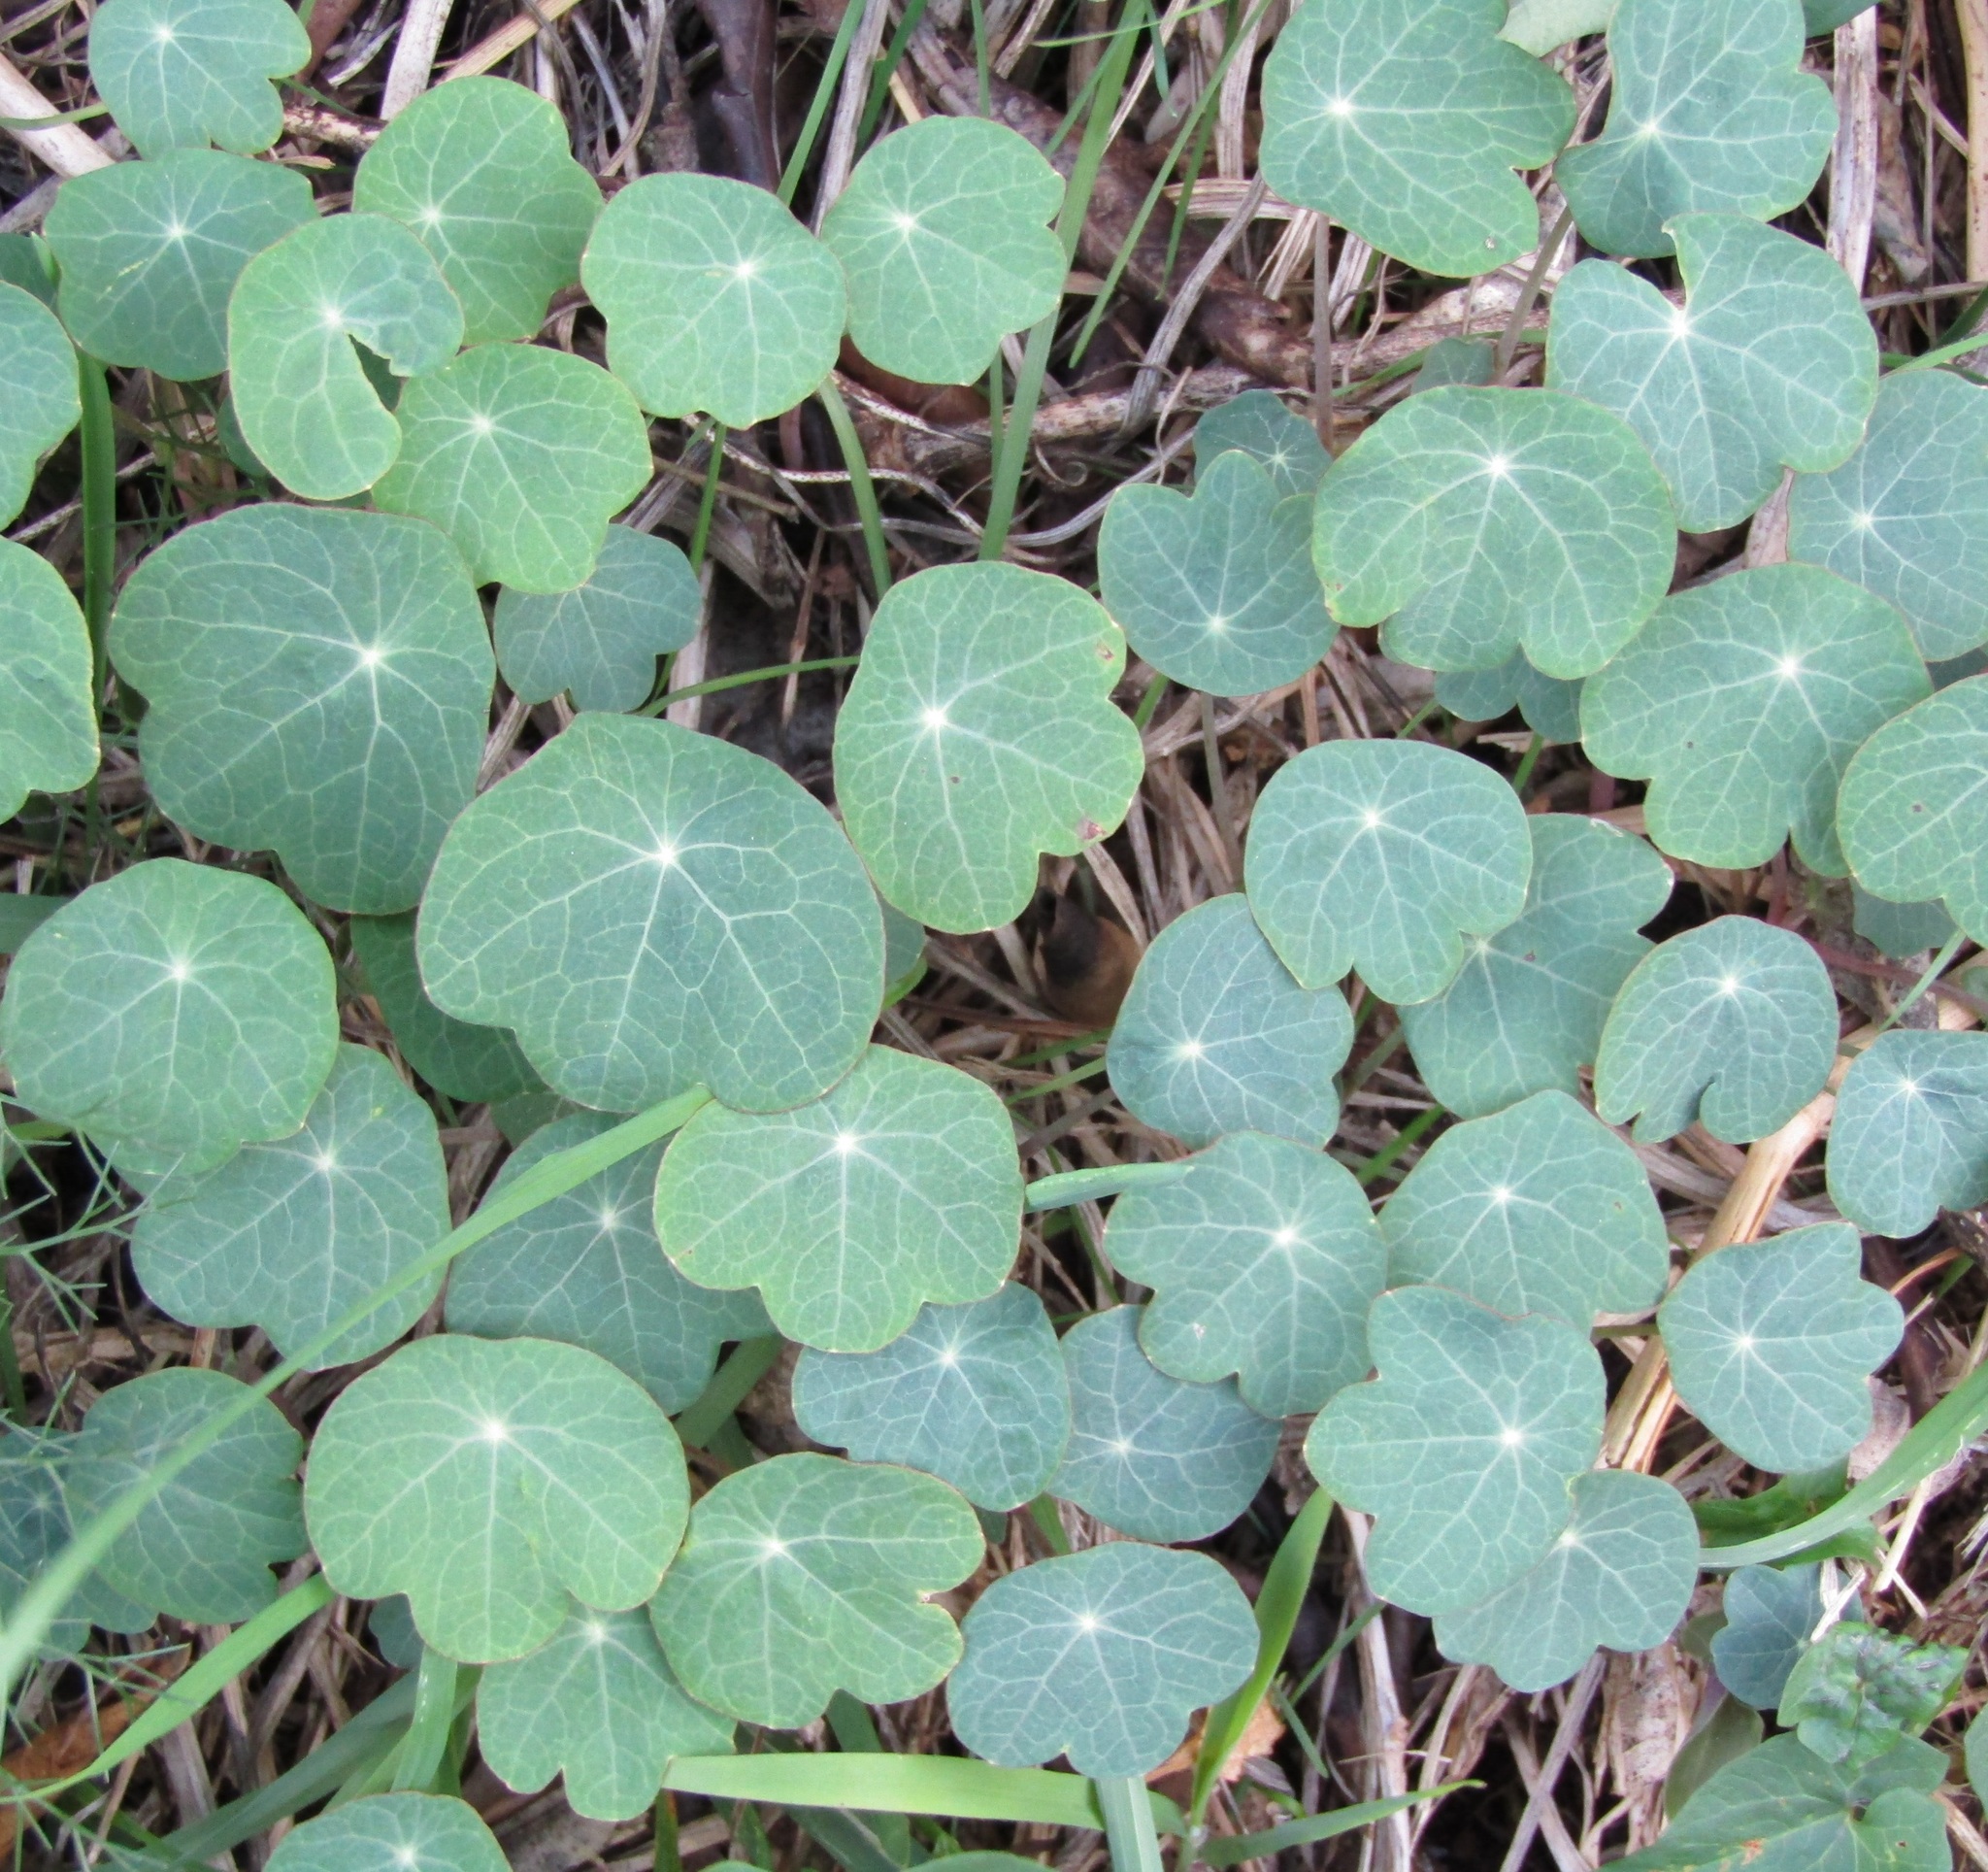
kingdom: Plantae
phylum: Tracheophyta
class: Magnoliopsida
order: Brassicales
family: Tropaeolaceae
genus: Tropaeolum
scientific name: Tropaeolum majus
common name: Nasturtium
